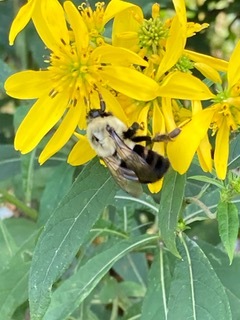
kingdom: Animalia
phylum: Arthropoda
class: Insecta
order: Hymenoptera
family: Apidae
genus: Bombus
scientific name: Bombus impatiens
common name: Common eastern bumble bee
